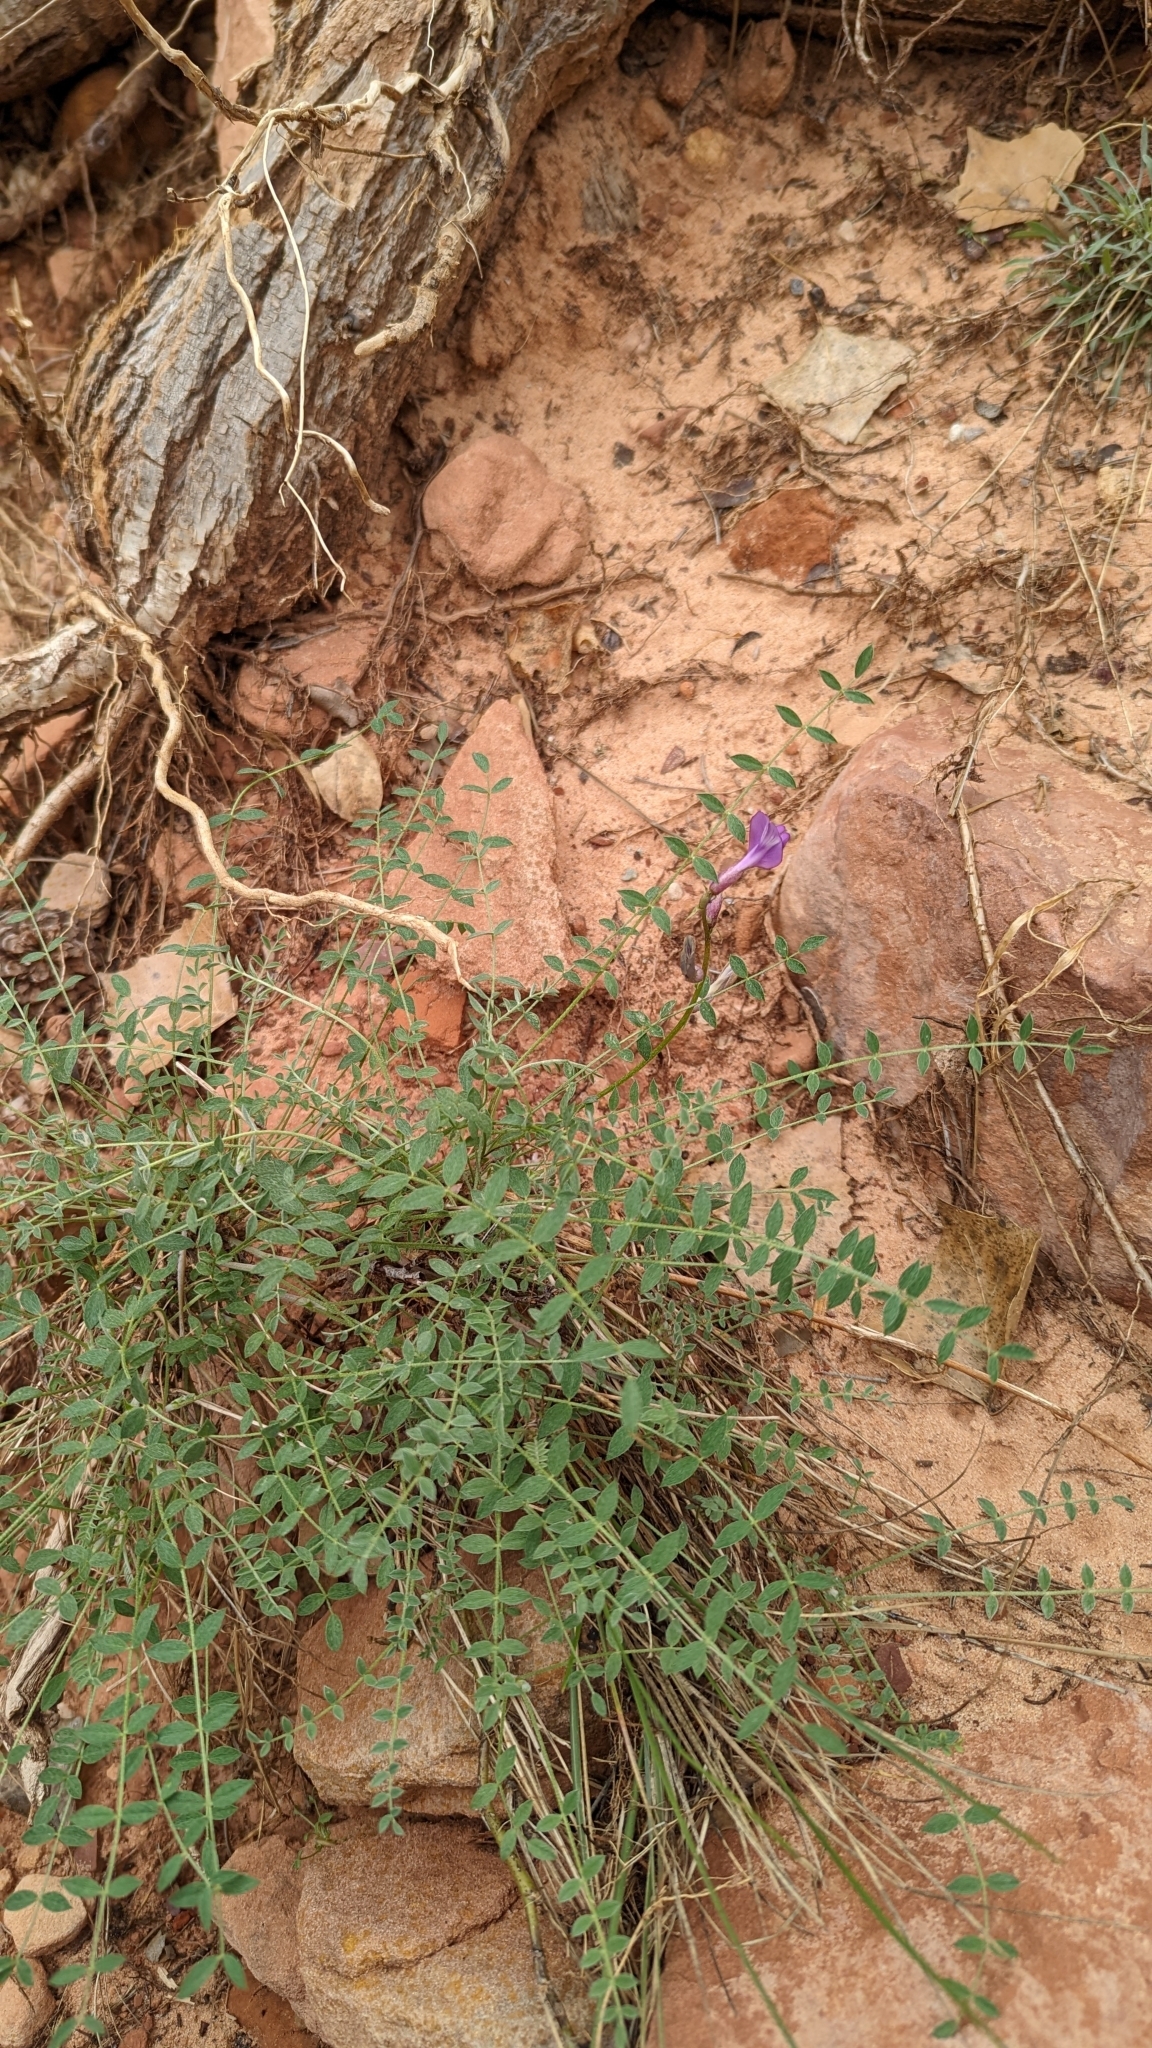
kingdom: Plantae
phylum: Tracheophyta
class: Magnoliopsida
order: Fabales
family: Fabaceae
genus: Astragalus
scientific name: Astragalus zionis
